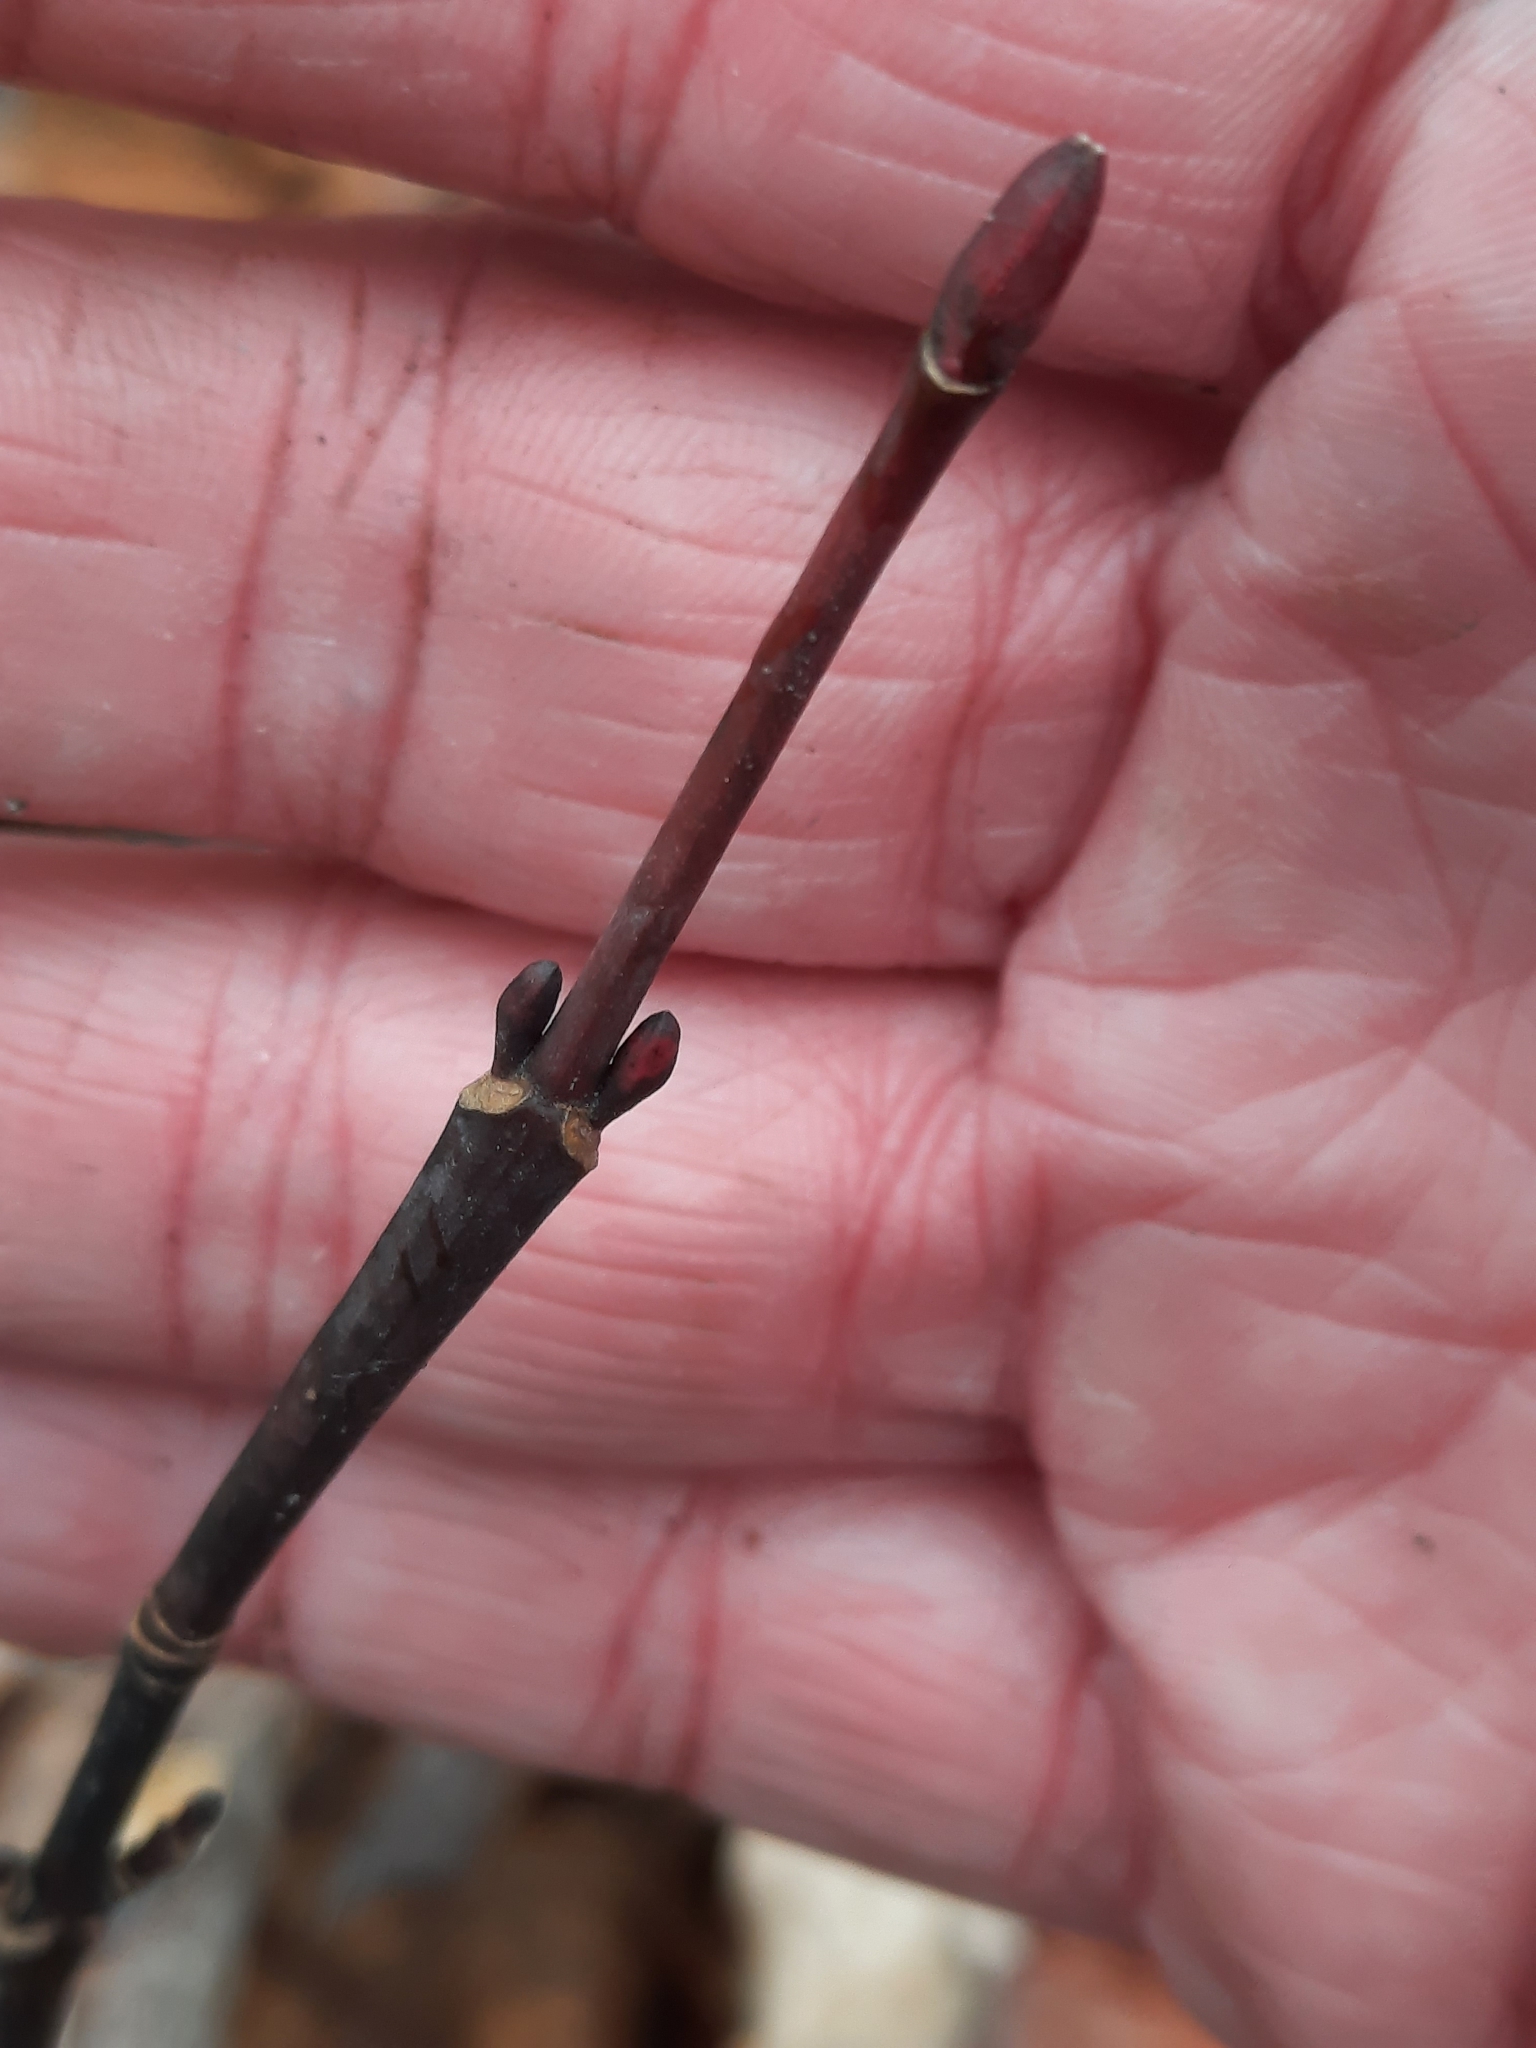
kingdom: Plantae
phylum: Tracheophyta
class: Magnoliopsida
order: Sapindales
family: Sapindaceae
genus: Acer
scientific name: Acer pensylvanicum
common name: Moosewood
